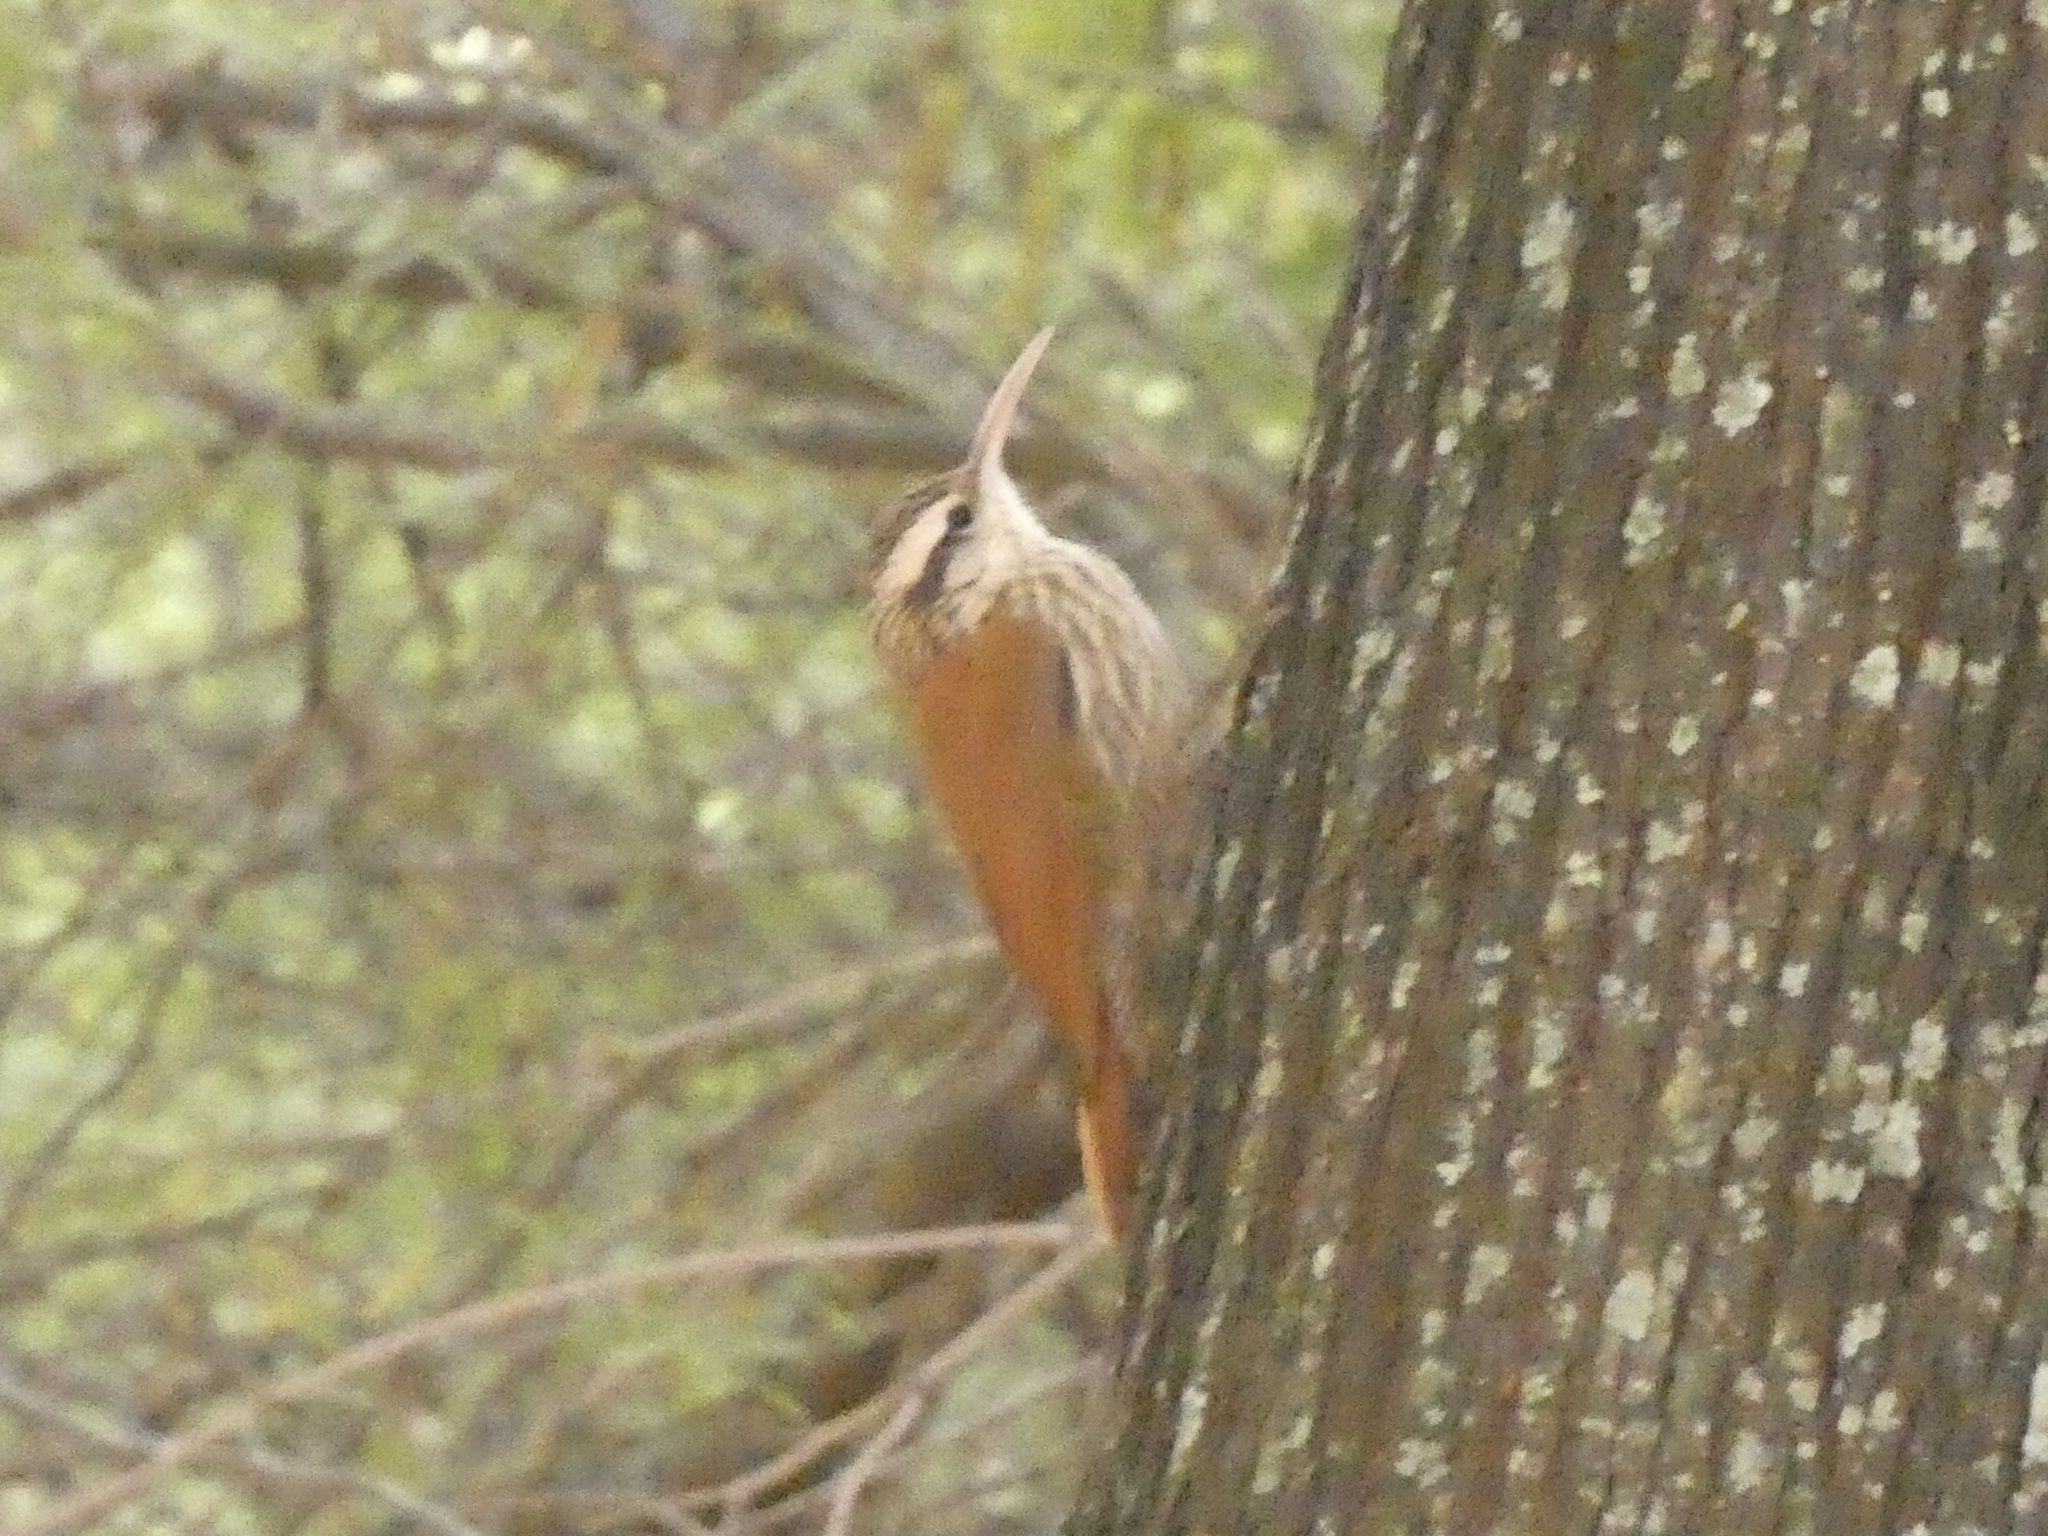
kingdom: Animalia
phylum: Chordata
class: Aves
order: Passeriformes
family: Furnariidae
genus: Lepidocolaptes
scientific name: Lepidocolaptes angustirostris
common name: Narrow-billed woodcreeper
